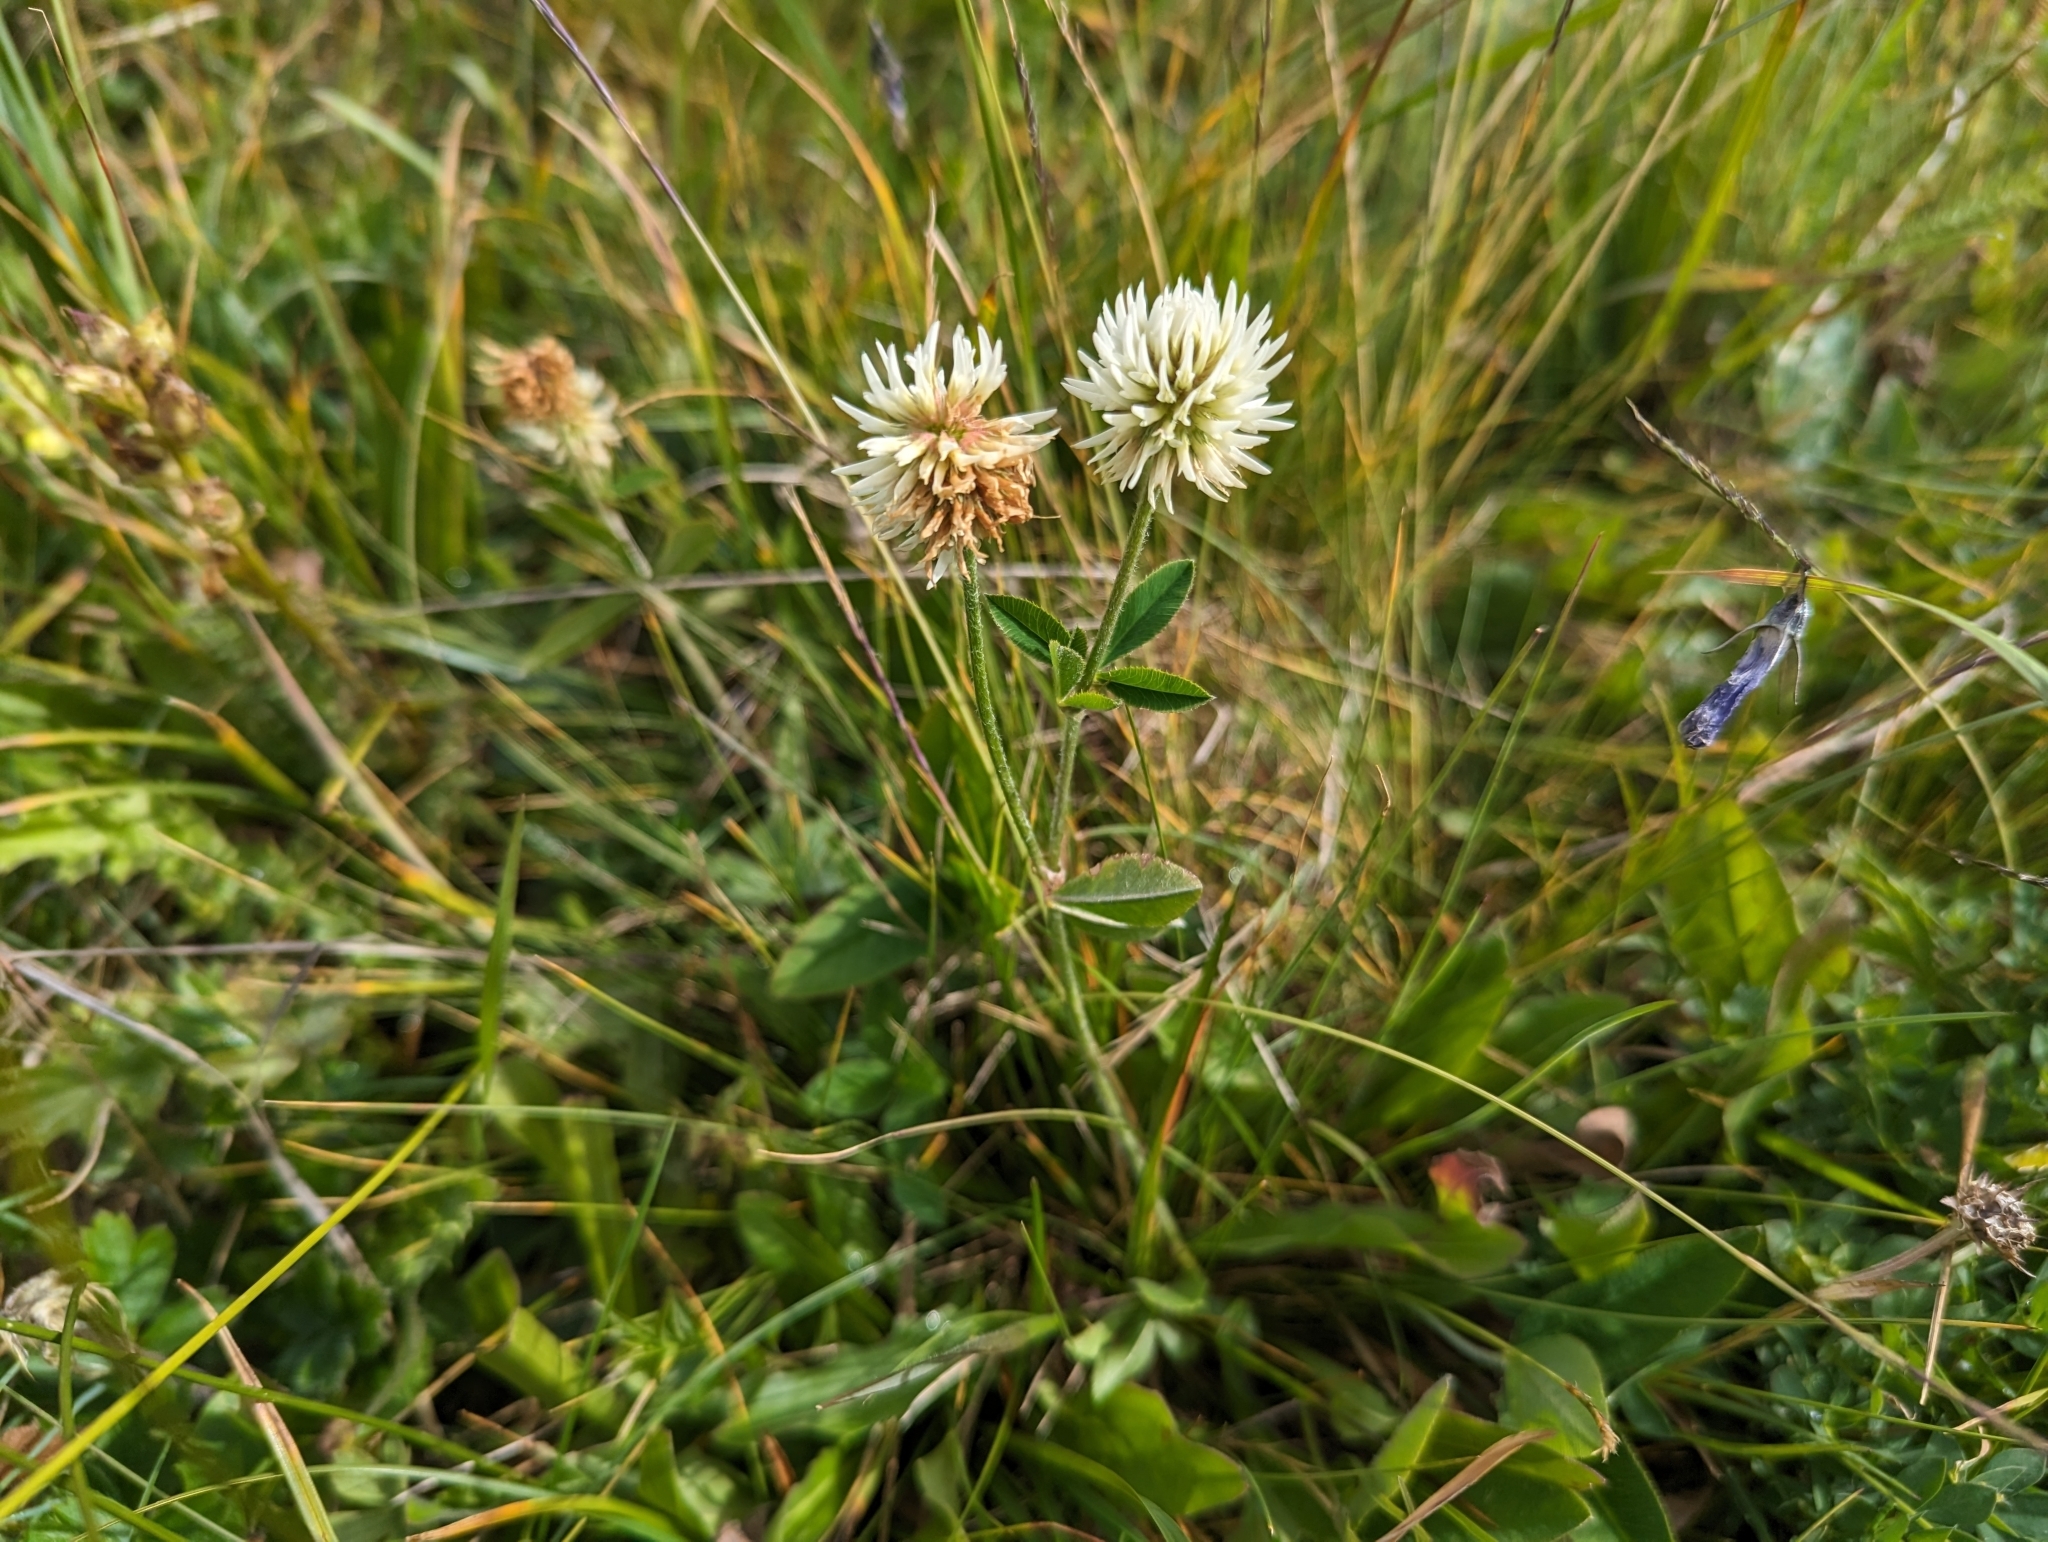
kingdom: Plantae
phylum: Tracheophyta
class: Magnoliopsida
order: Fabales
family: Fabaceae
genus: Trifolium
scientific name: Trifolium montanum
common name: Mountain clover
